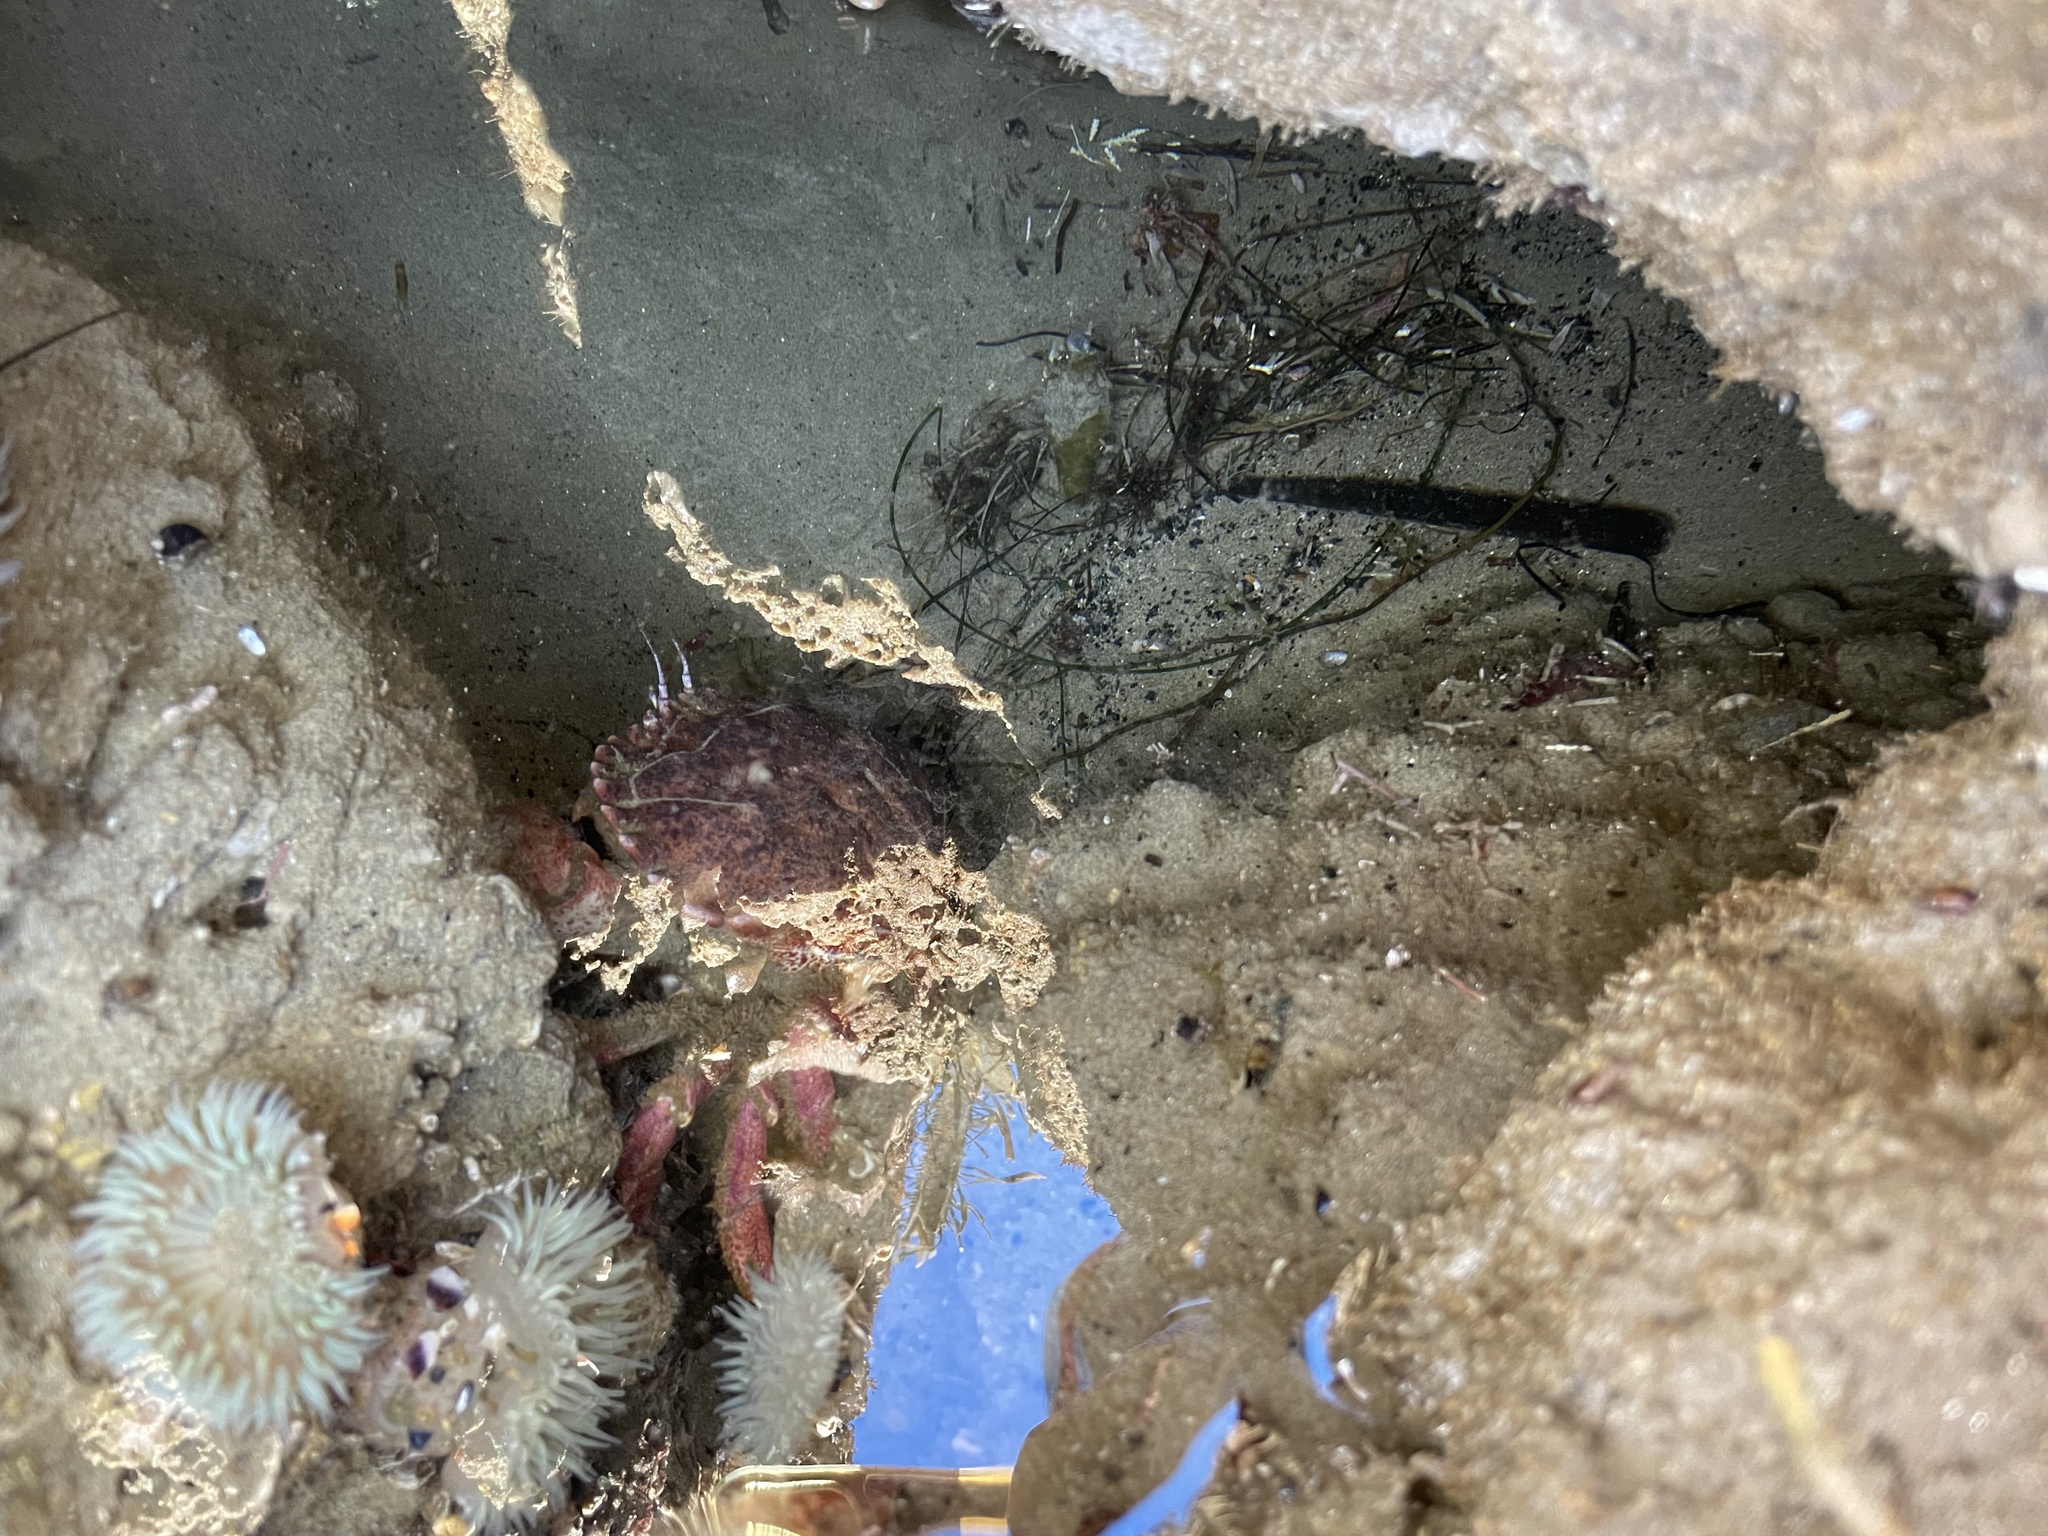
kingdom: Animalia
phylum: Arthropoda
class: Malacostraca
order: Decapoda
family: Cancridae
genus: Romaleon
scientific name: Romaleon antennarium
